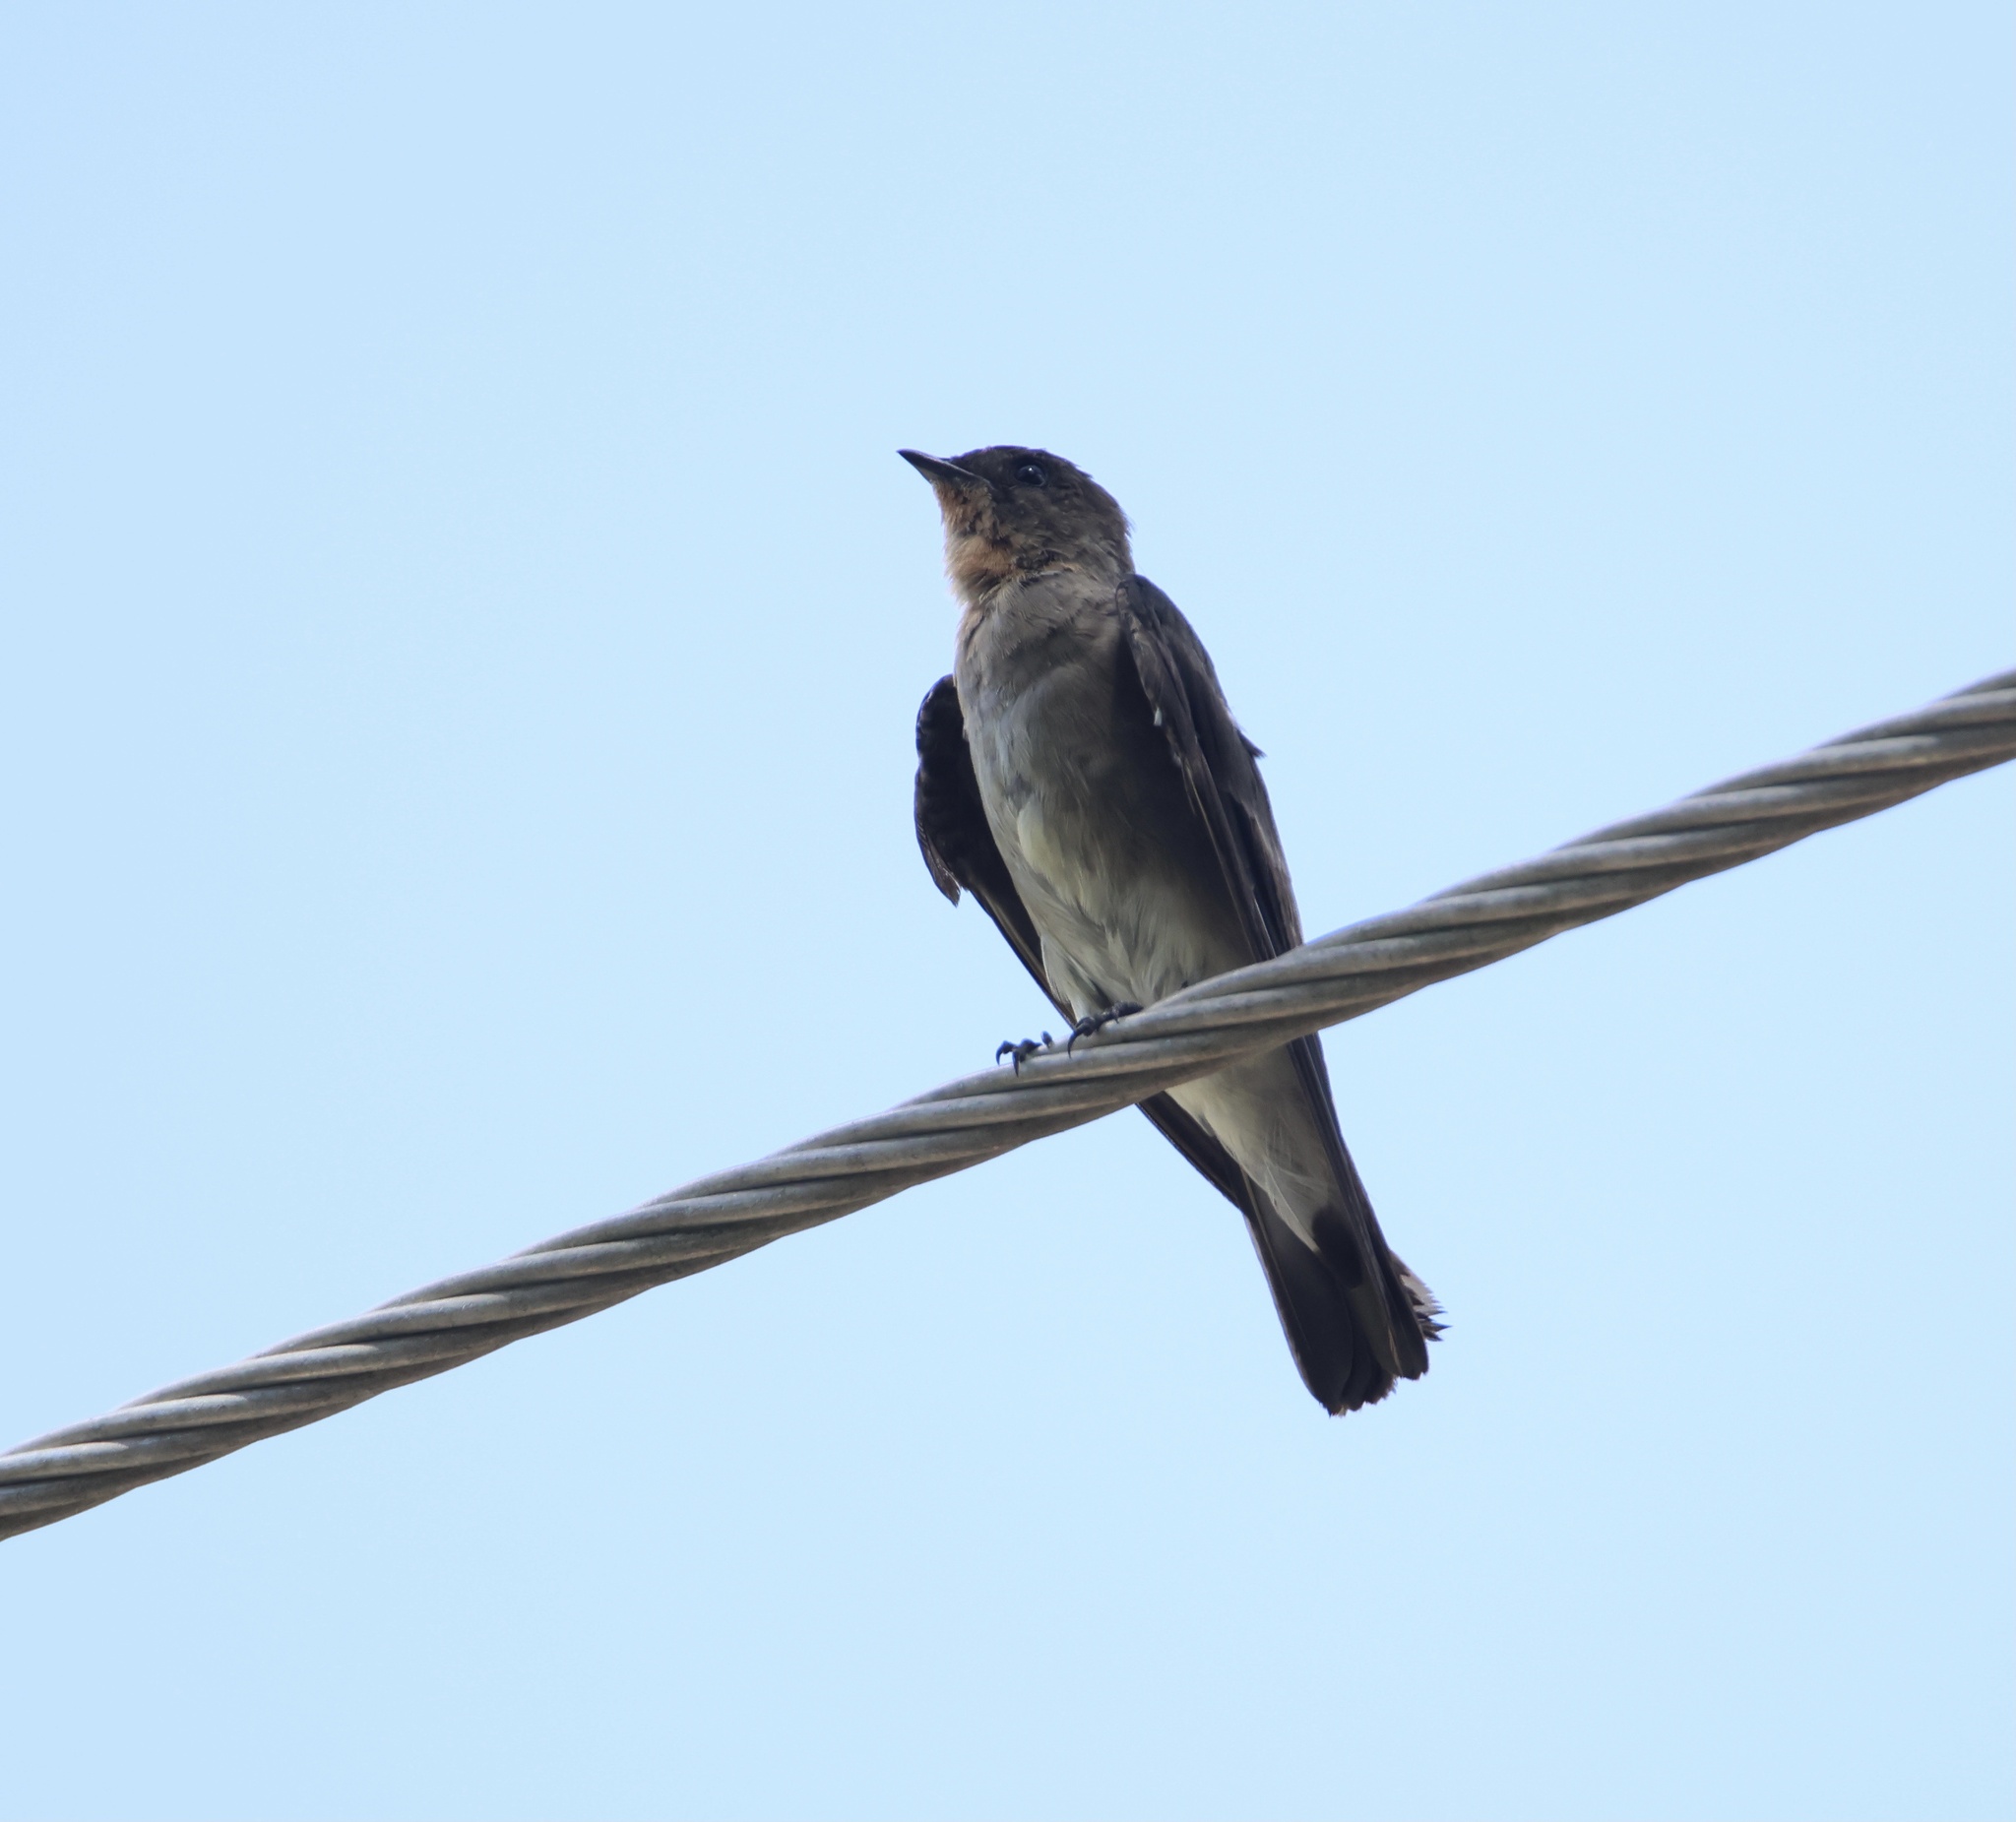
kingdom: Animalia
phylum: Chordata
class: Aves
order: Passeriformes
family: Hirundinidae
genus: Stelgidopteryx
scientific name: Stelgidopteryx ruficollis
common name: Southern rough-winged swallow
